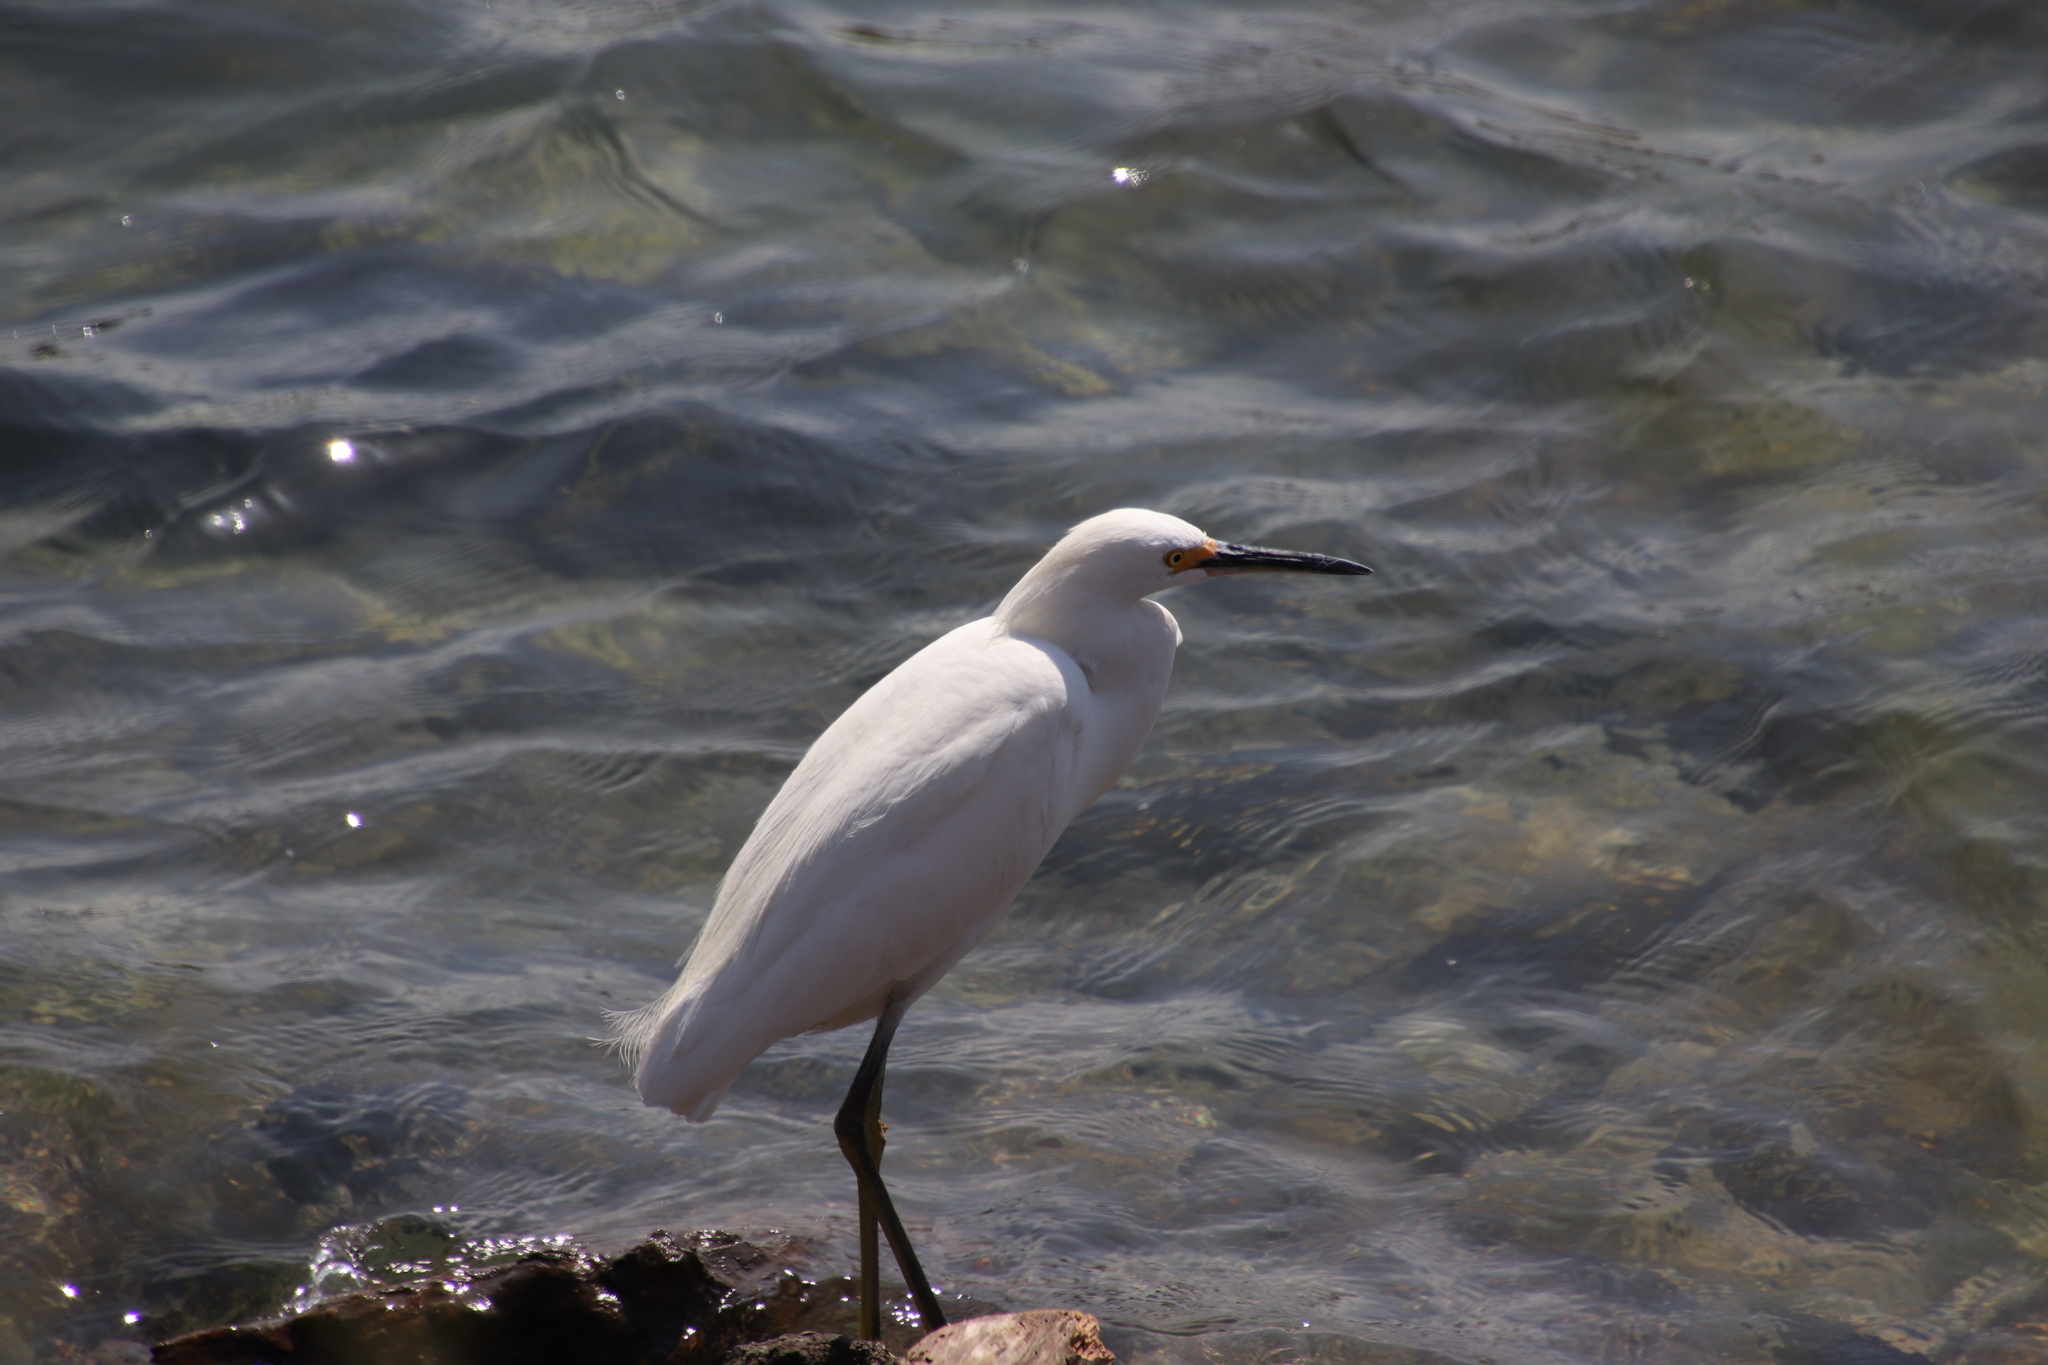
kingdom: Animalia
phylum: Chordata
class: Aves
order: Pelecaniformes
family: Ardeidae
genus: Egretta
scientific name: Egretta thula
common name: Snowy egret
